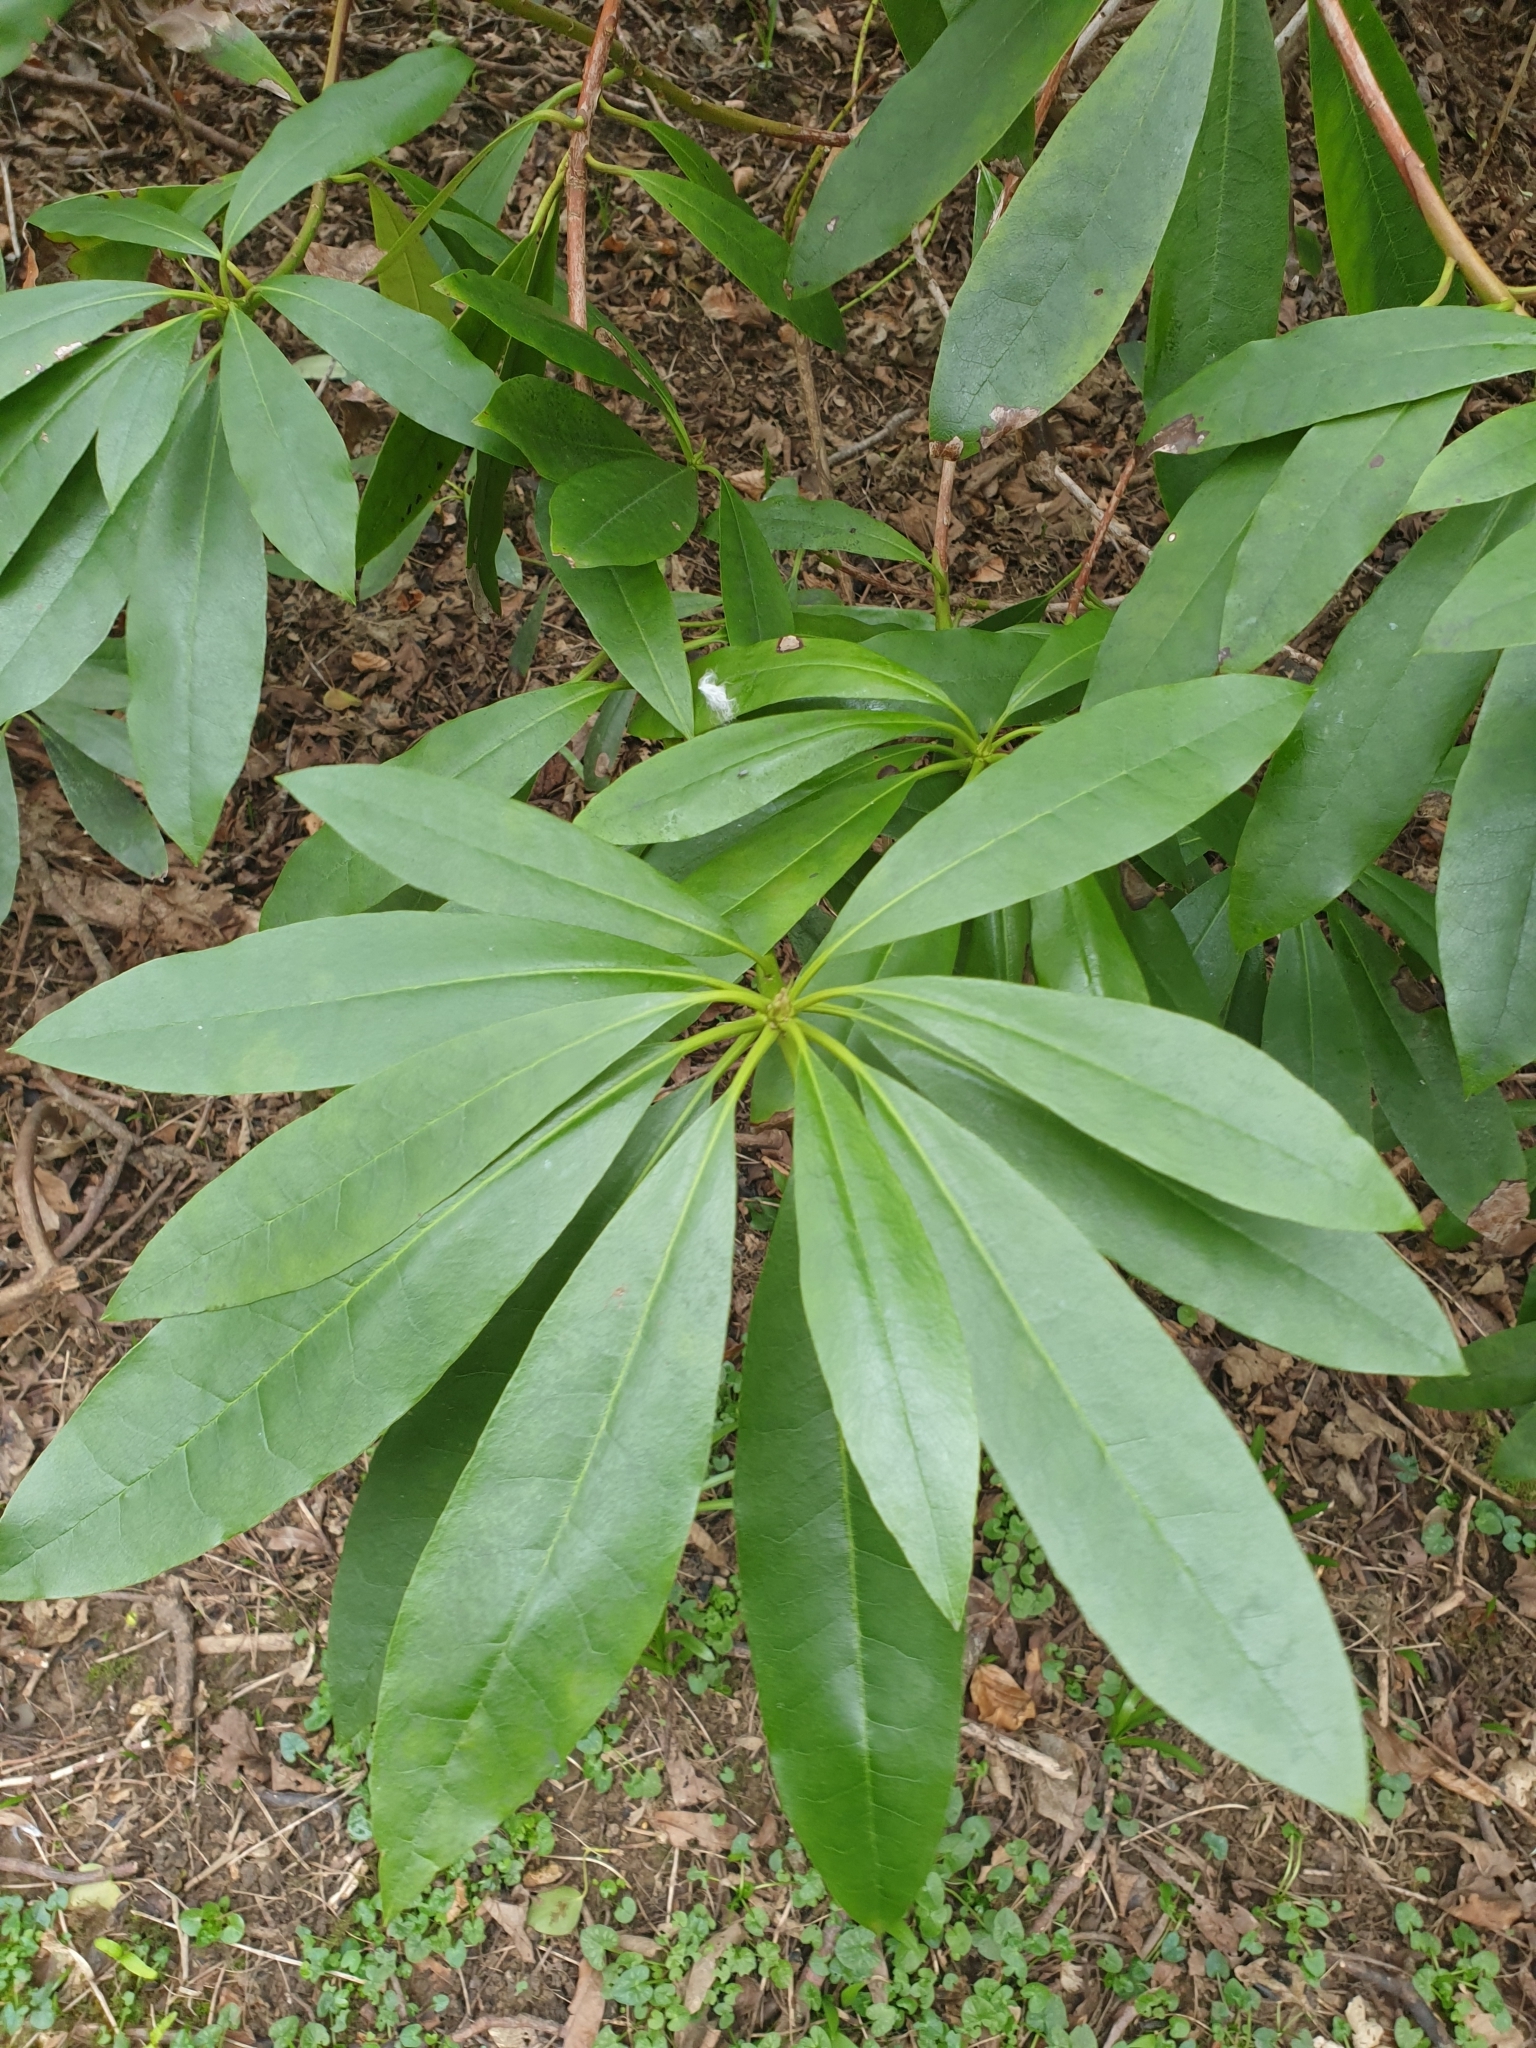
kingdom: Plantae
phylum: Tracheophyta
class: Magnoliopsida
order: Ericales
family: Ericaceae
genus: Rhododendron
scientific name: Rhododendron ponticum
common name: Rhododendron
